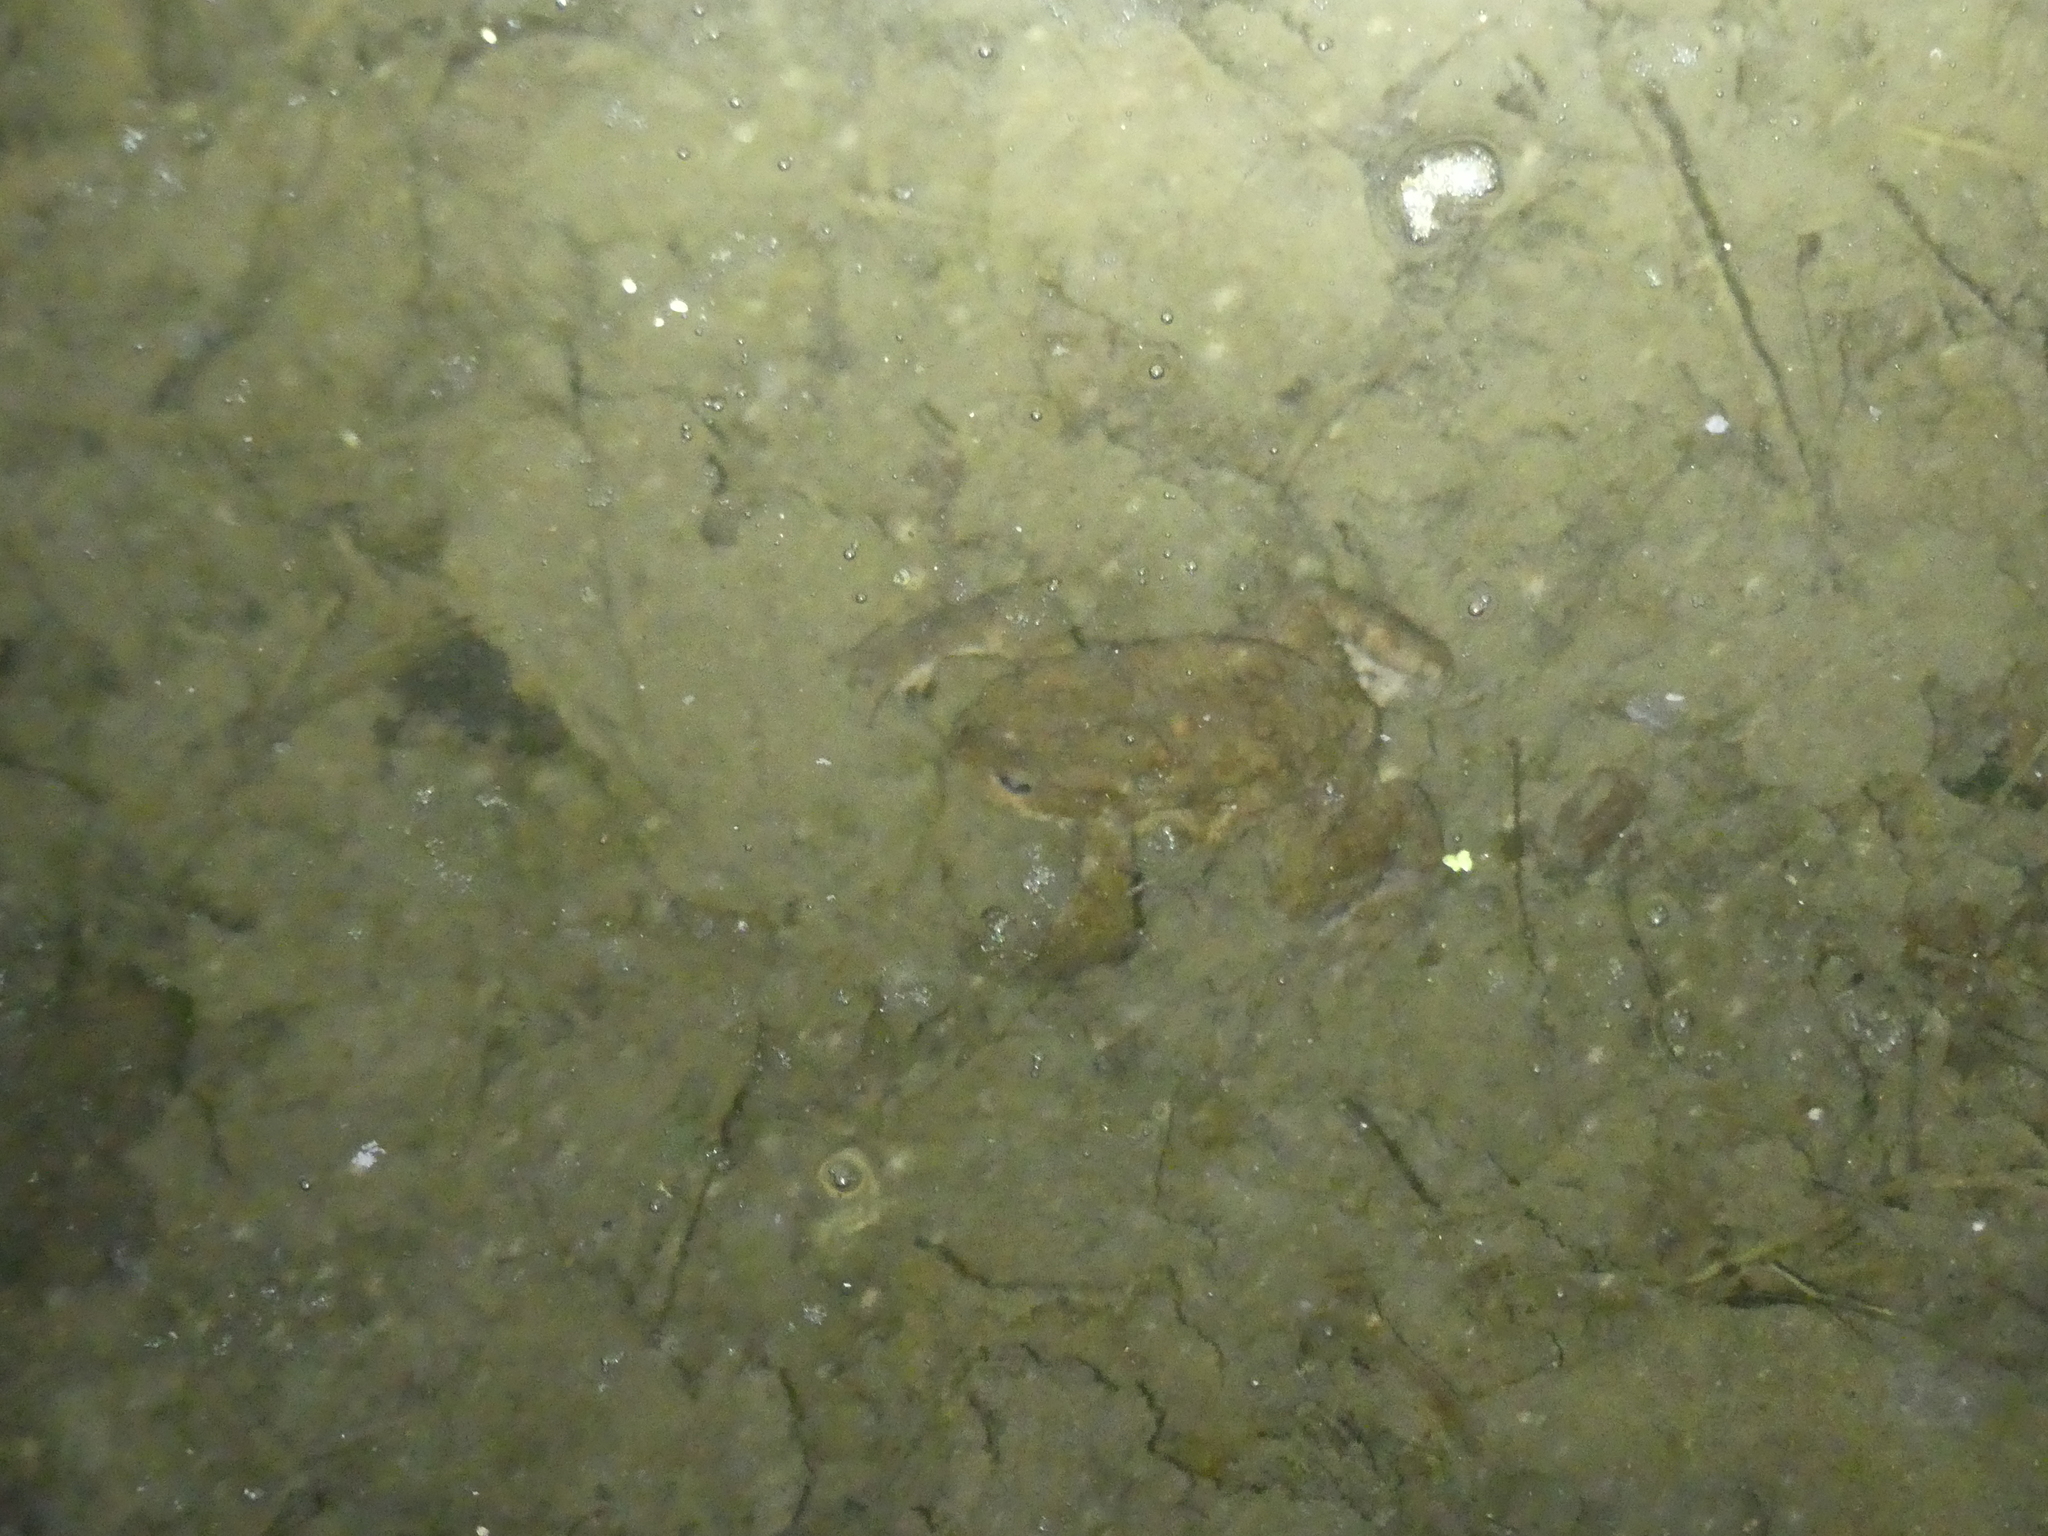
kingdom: Animalia
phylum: Chordata
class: Amphibia
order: Anura
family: Bufonidae
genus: Bufo
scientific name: Bufo bufo
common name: Common toad
